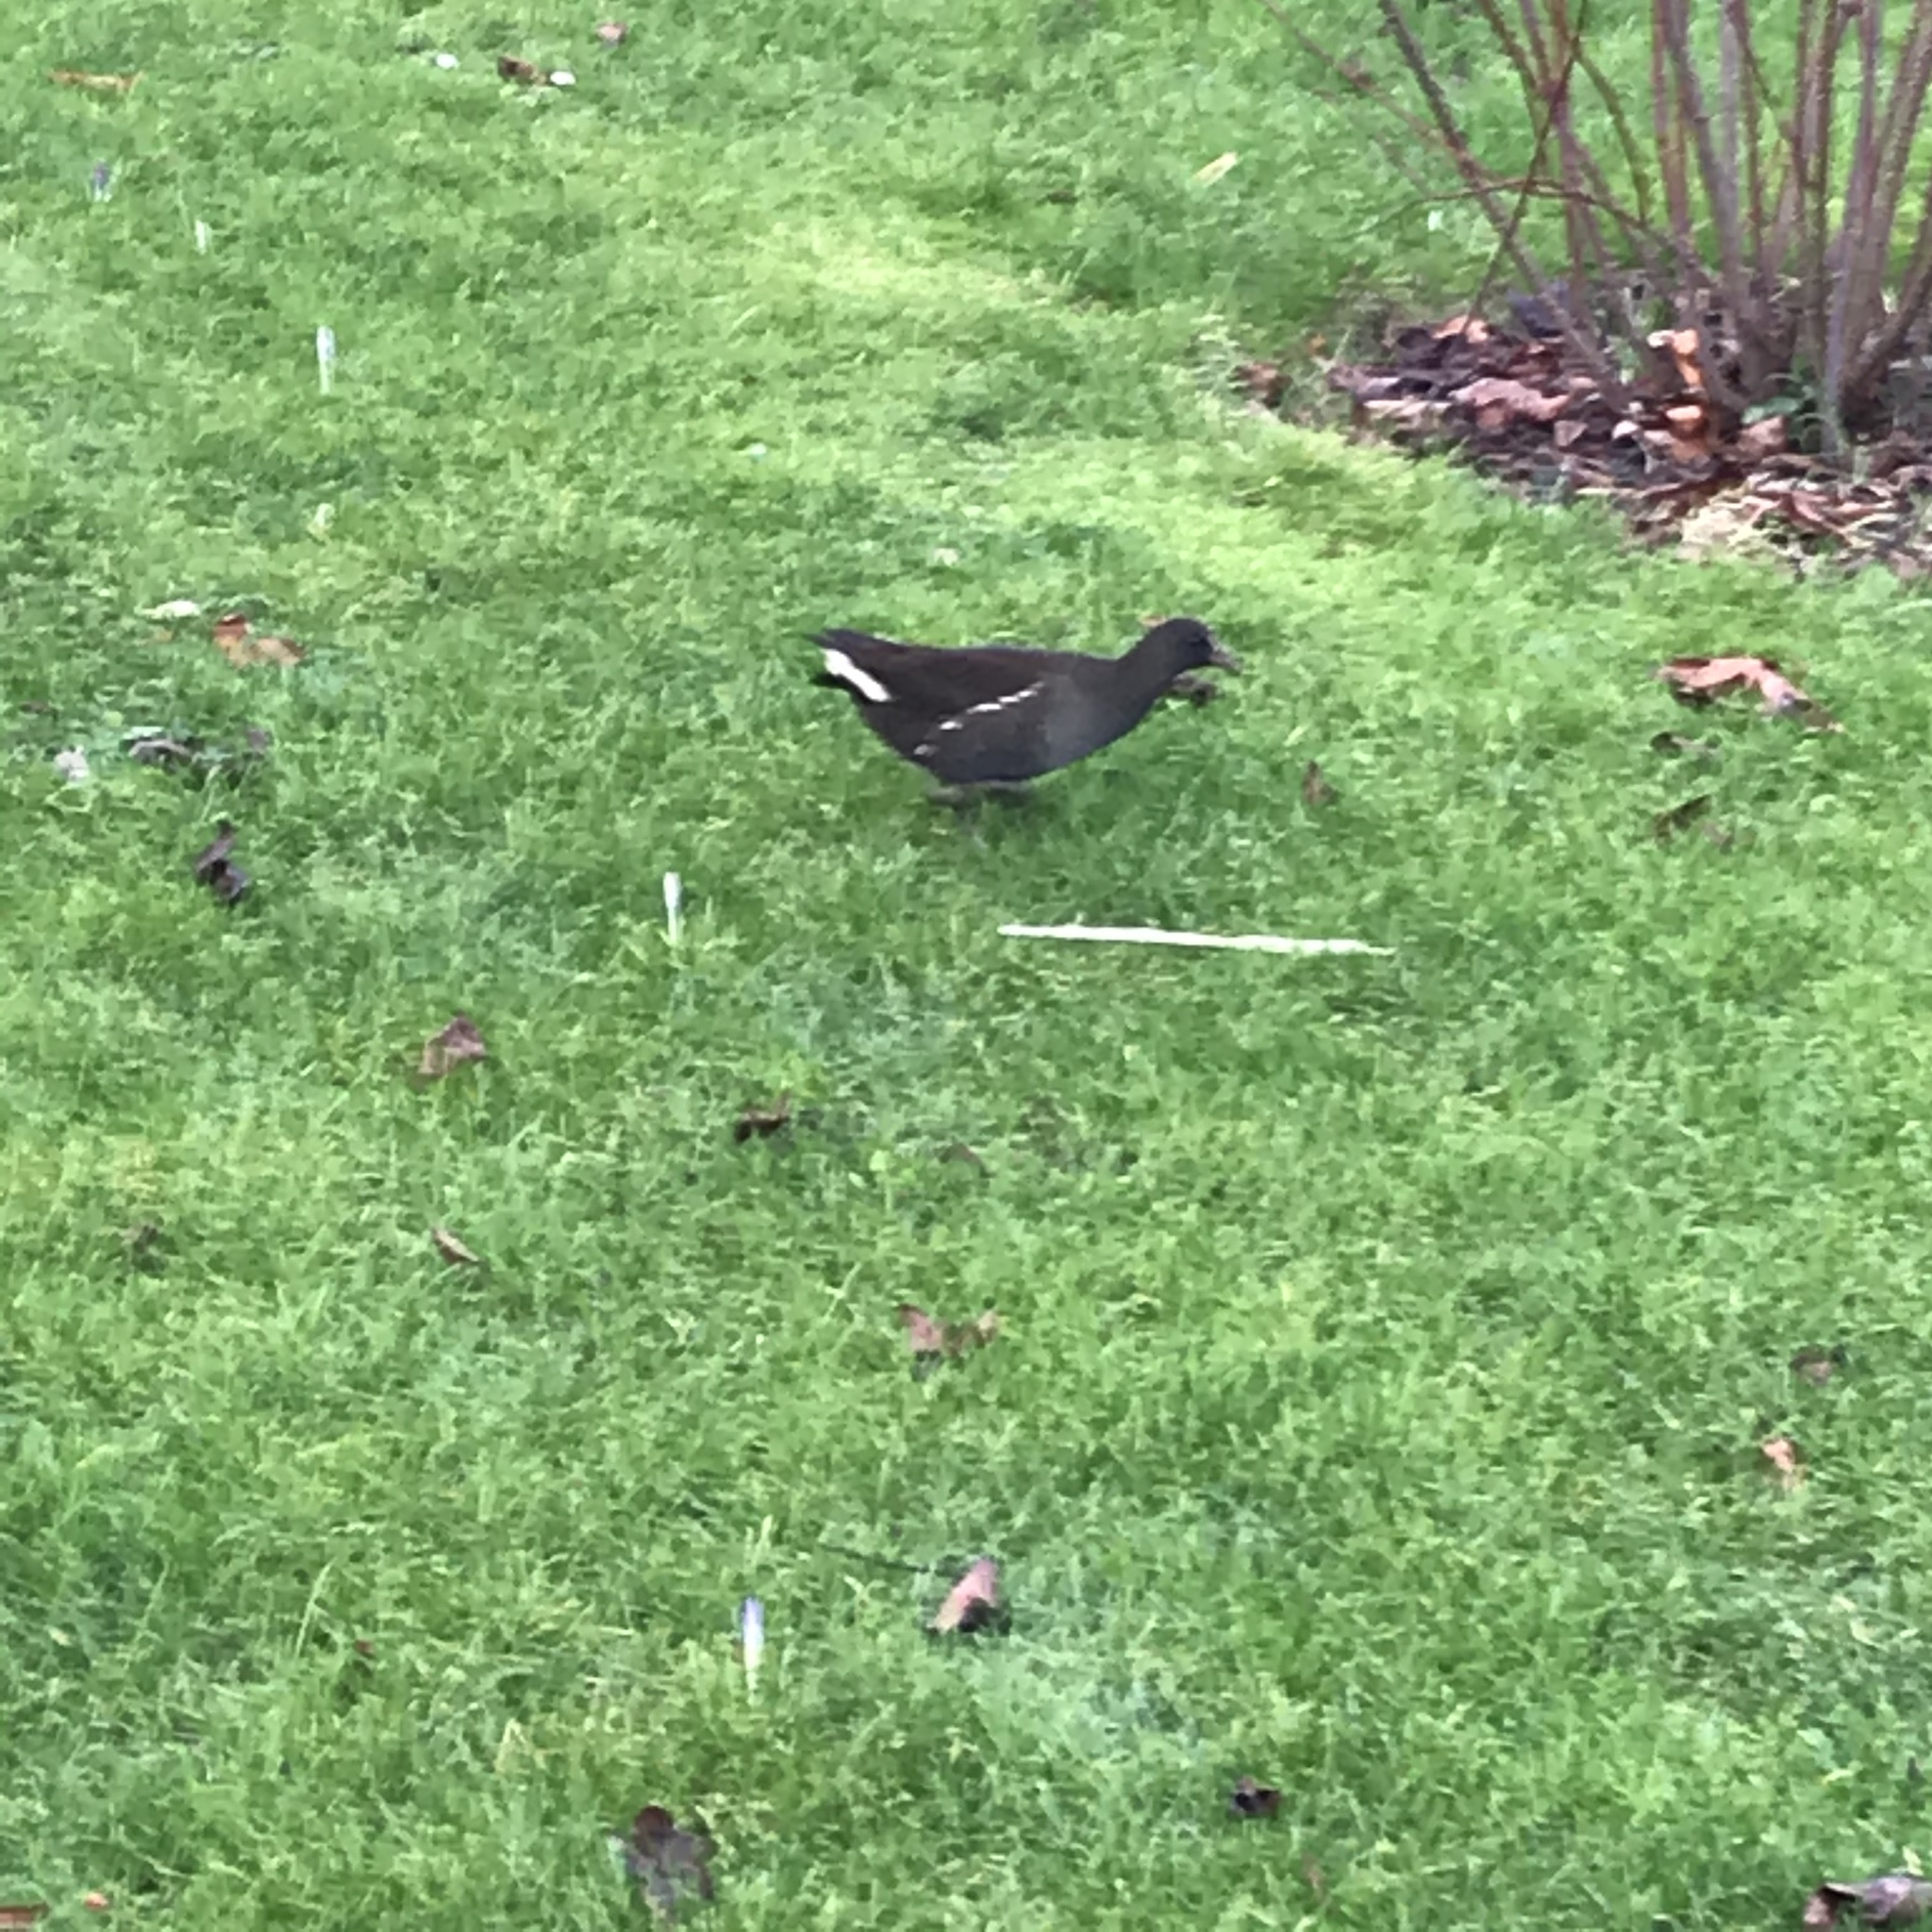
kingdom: Animalia
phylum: Chordata
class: Aves
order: Gruiformes
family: Rallidae
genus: Gallinula
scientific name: Gallinula chloropus
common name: Common moorhen
